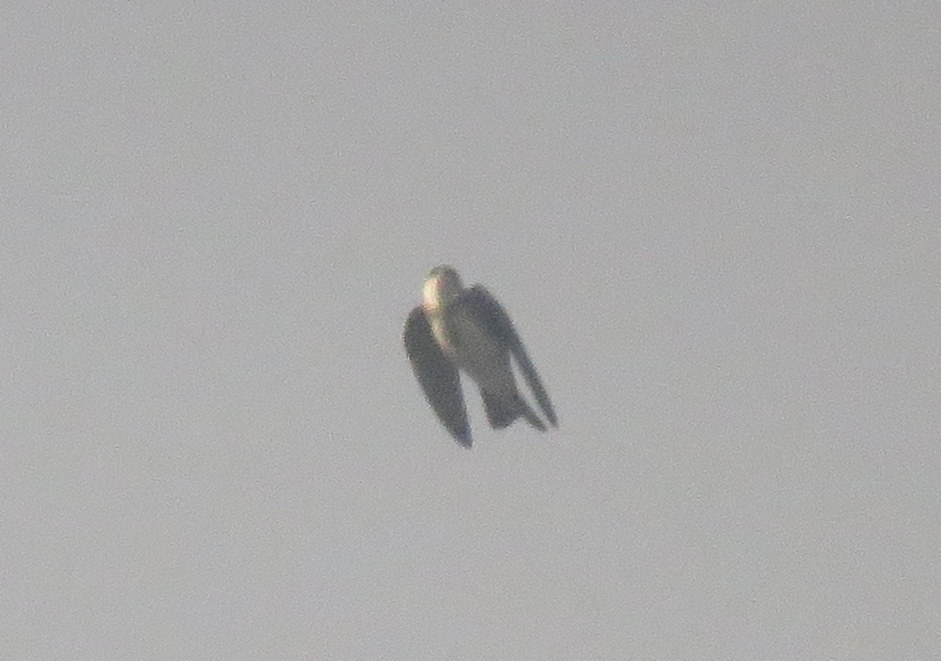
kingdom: Animalia
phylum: Chordata
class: Aves
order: Passeriformes
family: Hirundinidae
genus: Progne
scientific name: Progne tapera
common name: Brown-chested martin
